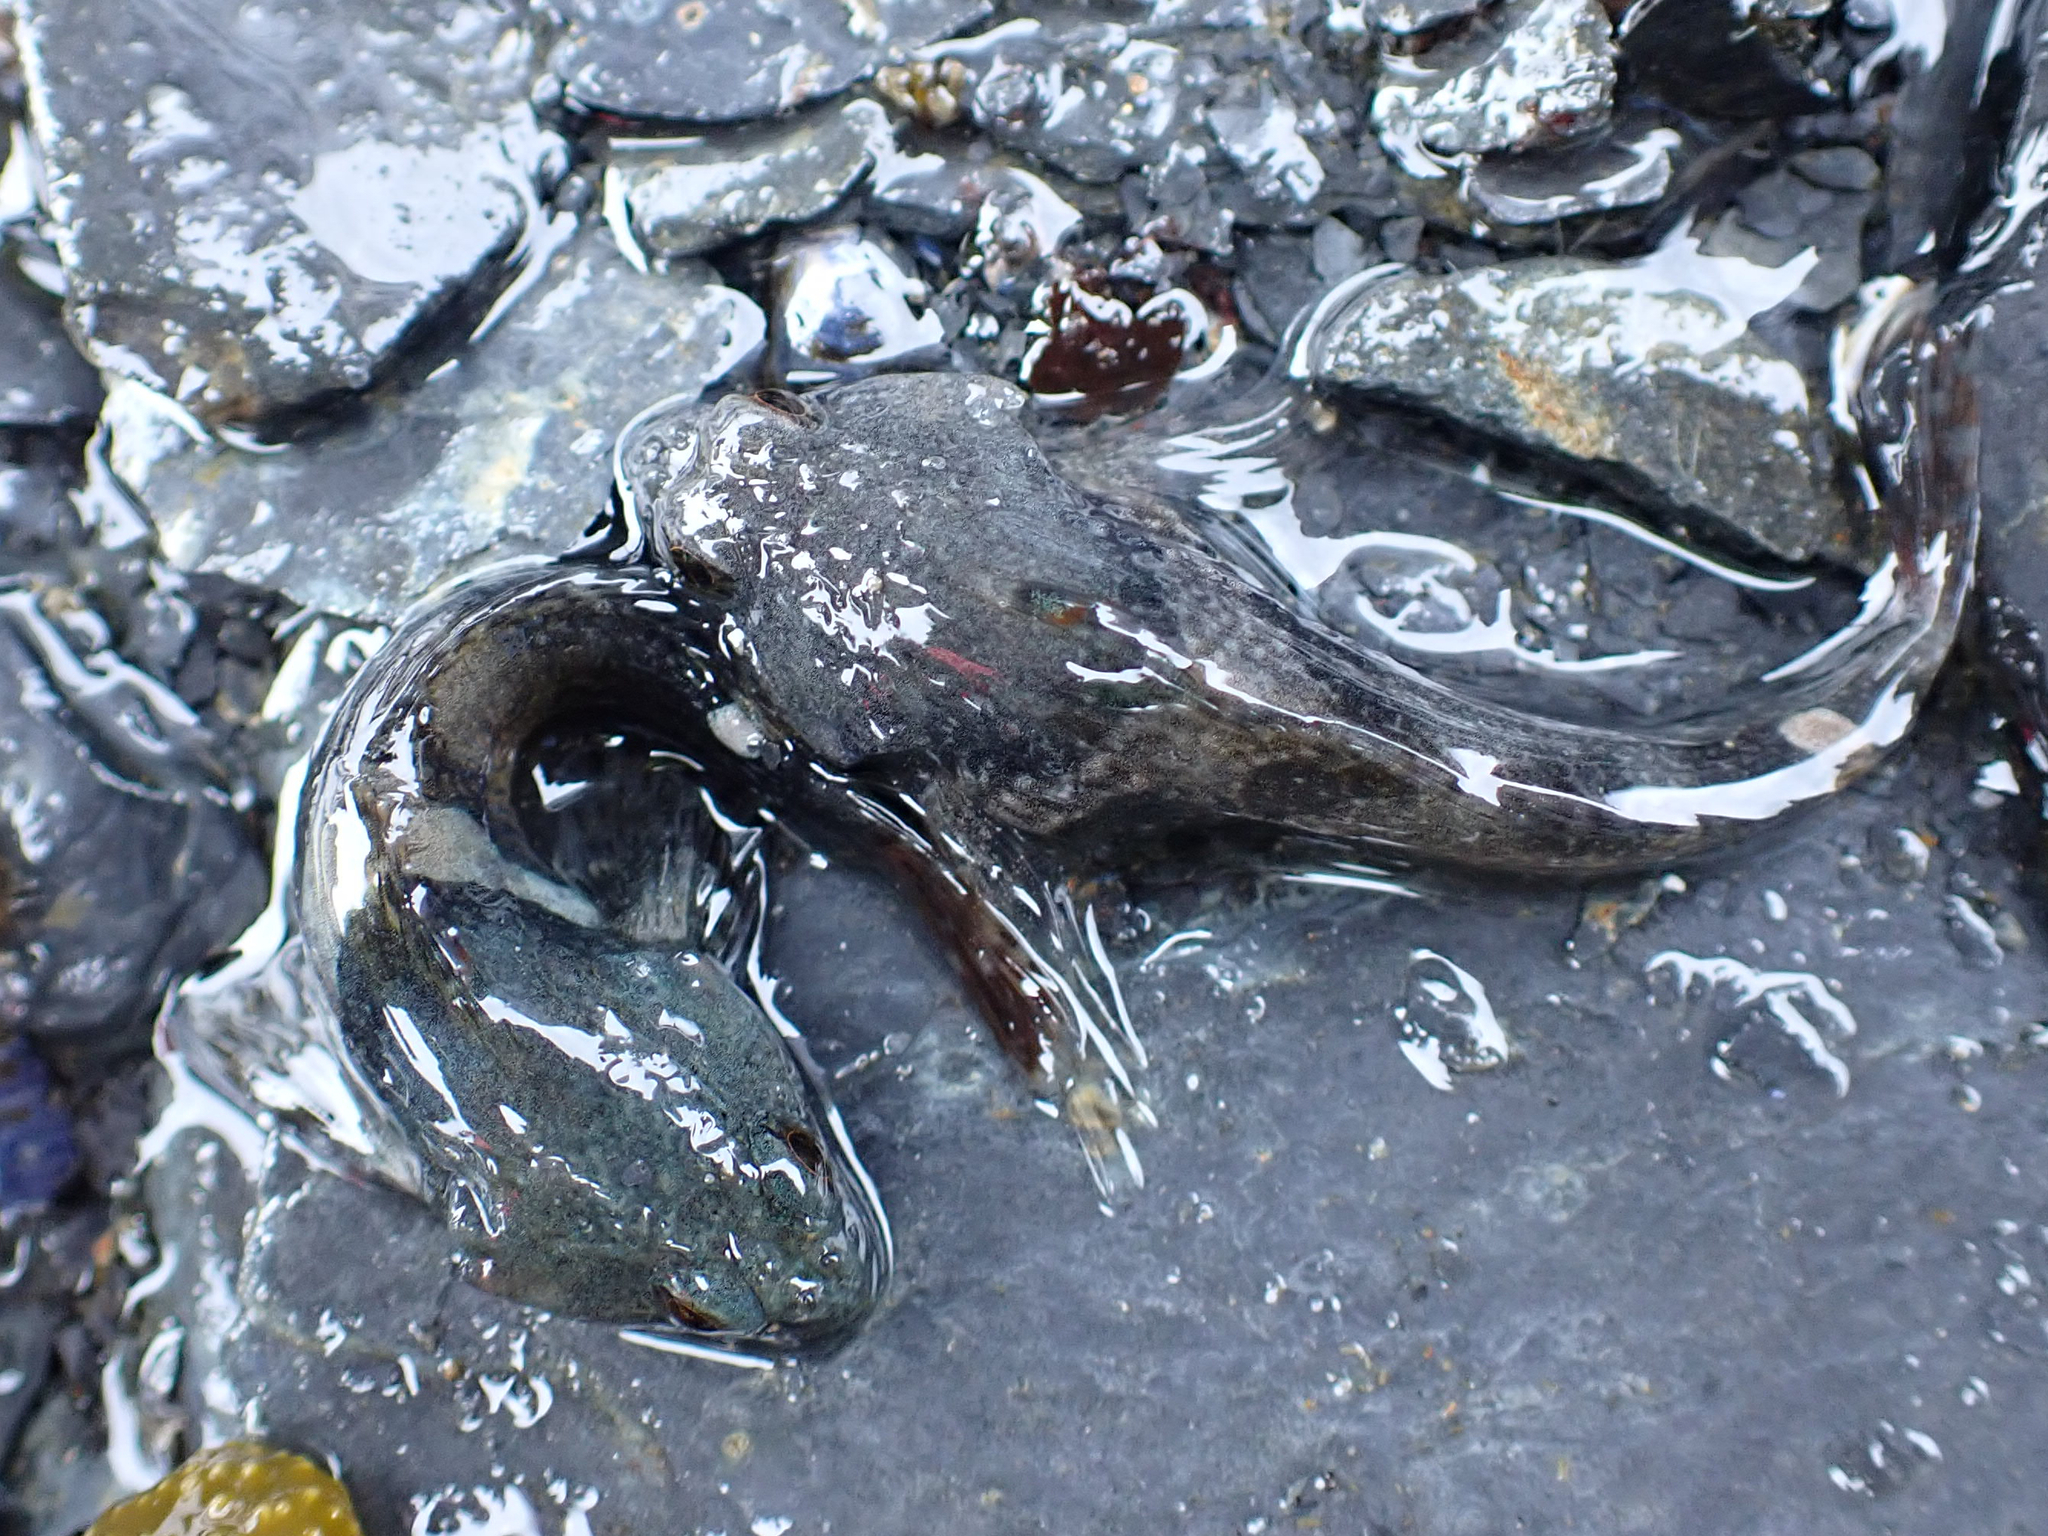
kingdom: Animalia
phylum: Chordata
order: Scorpaeniformes
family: Cottidae
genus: Oligocottus
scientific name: Oligocottus maculosus
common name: Tidepool sculpin
